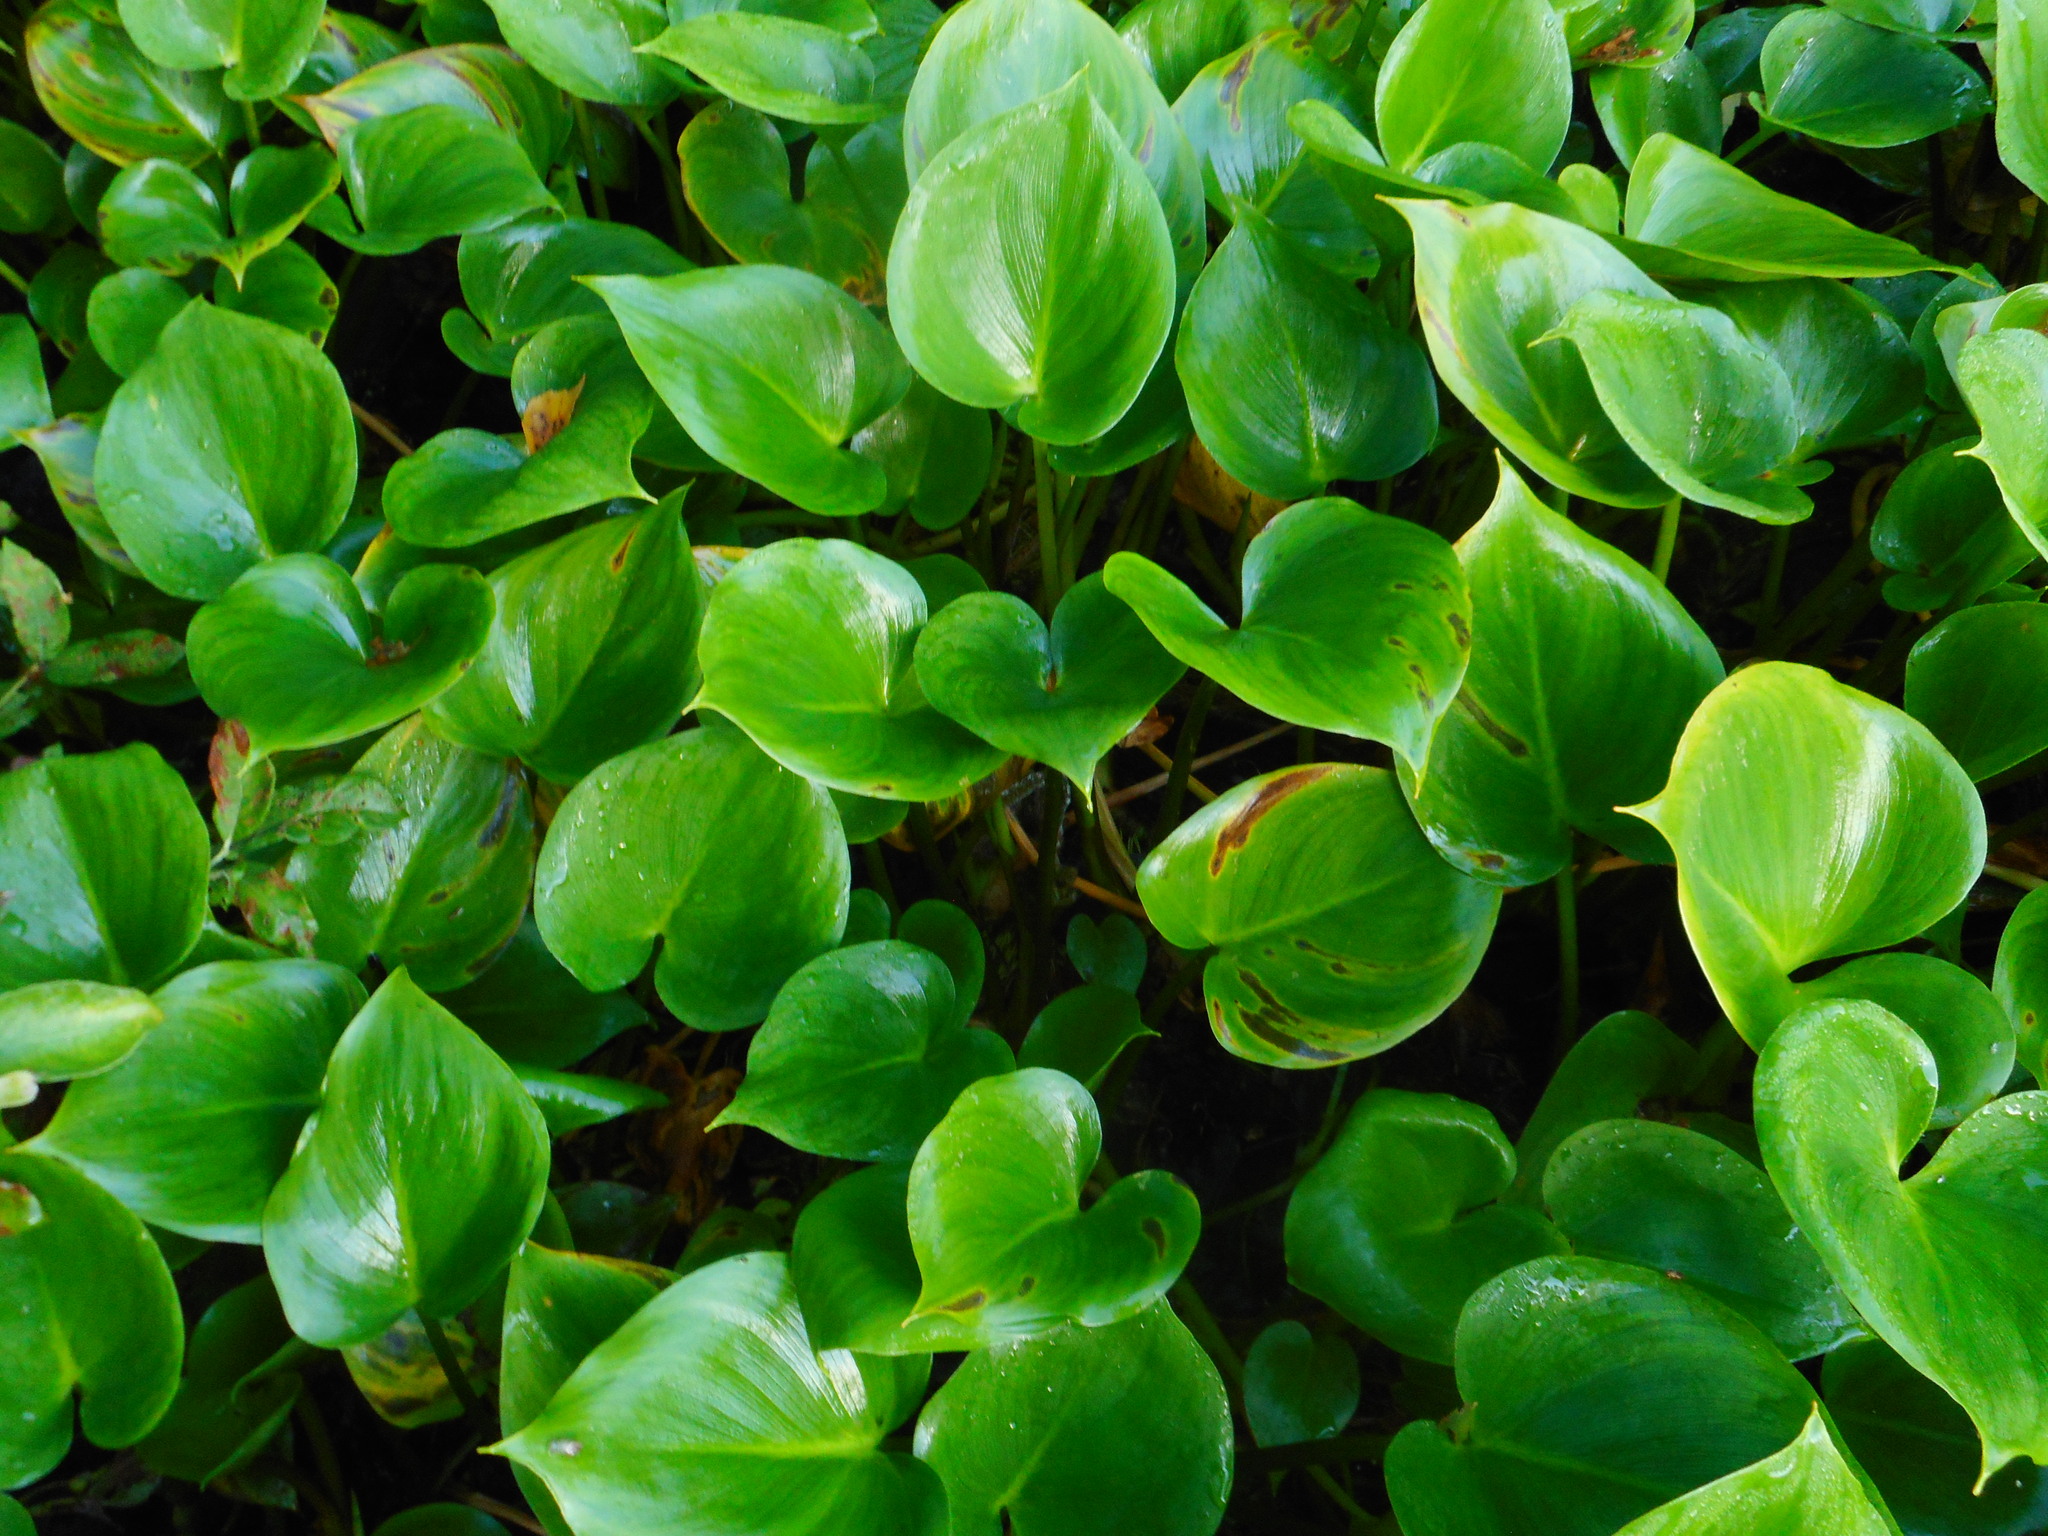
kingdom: Plantae
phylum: Tracheophyta
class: Liliopsida
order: Alismatales
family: Araceae
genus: Calla
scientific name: Calla palustris
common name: Bog arum
